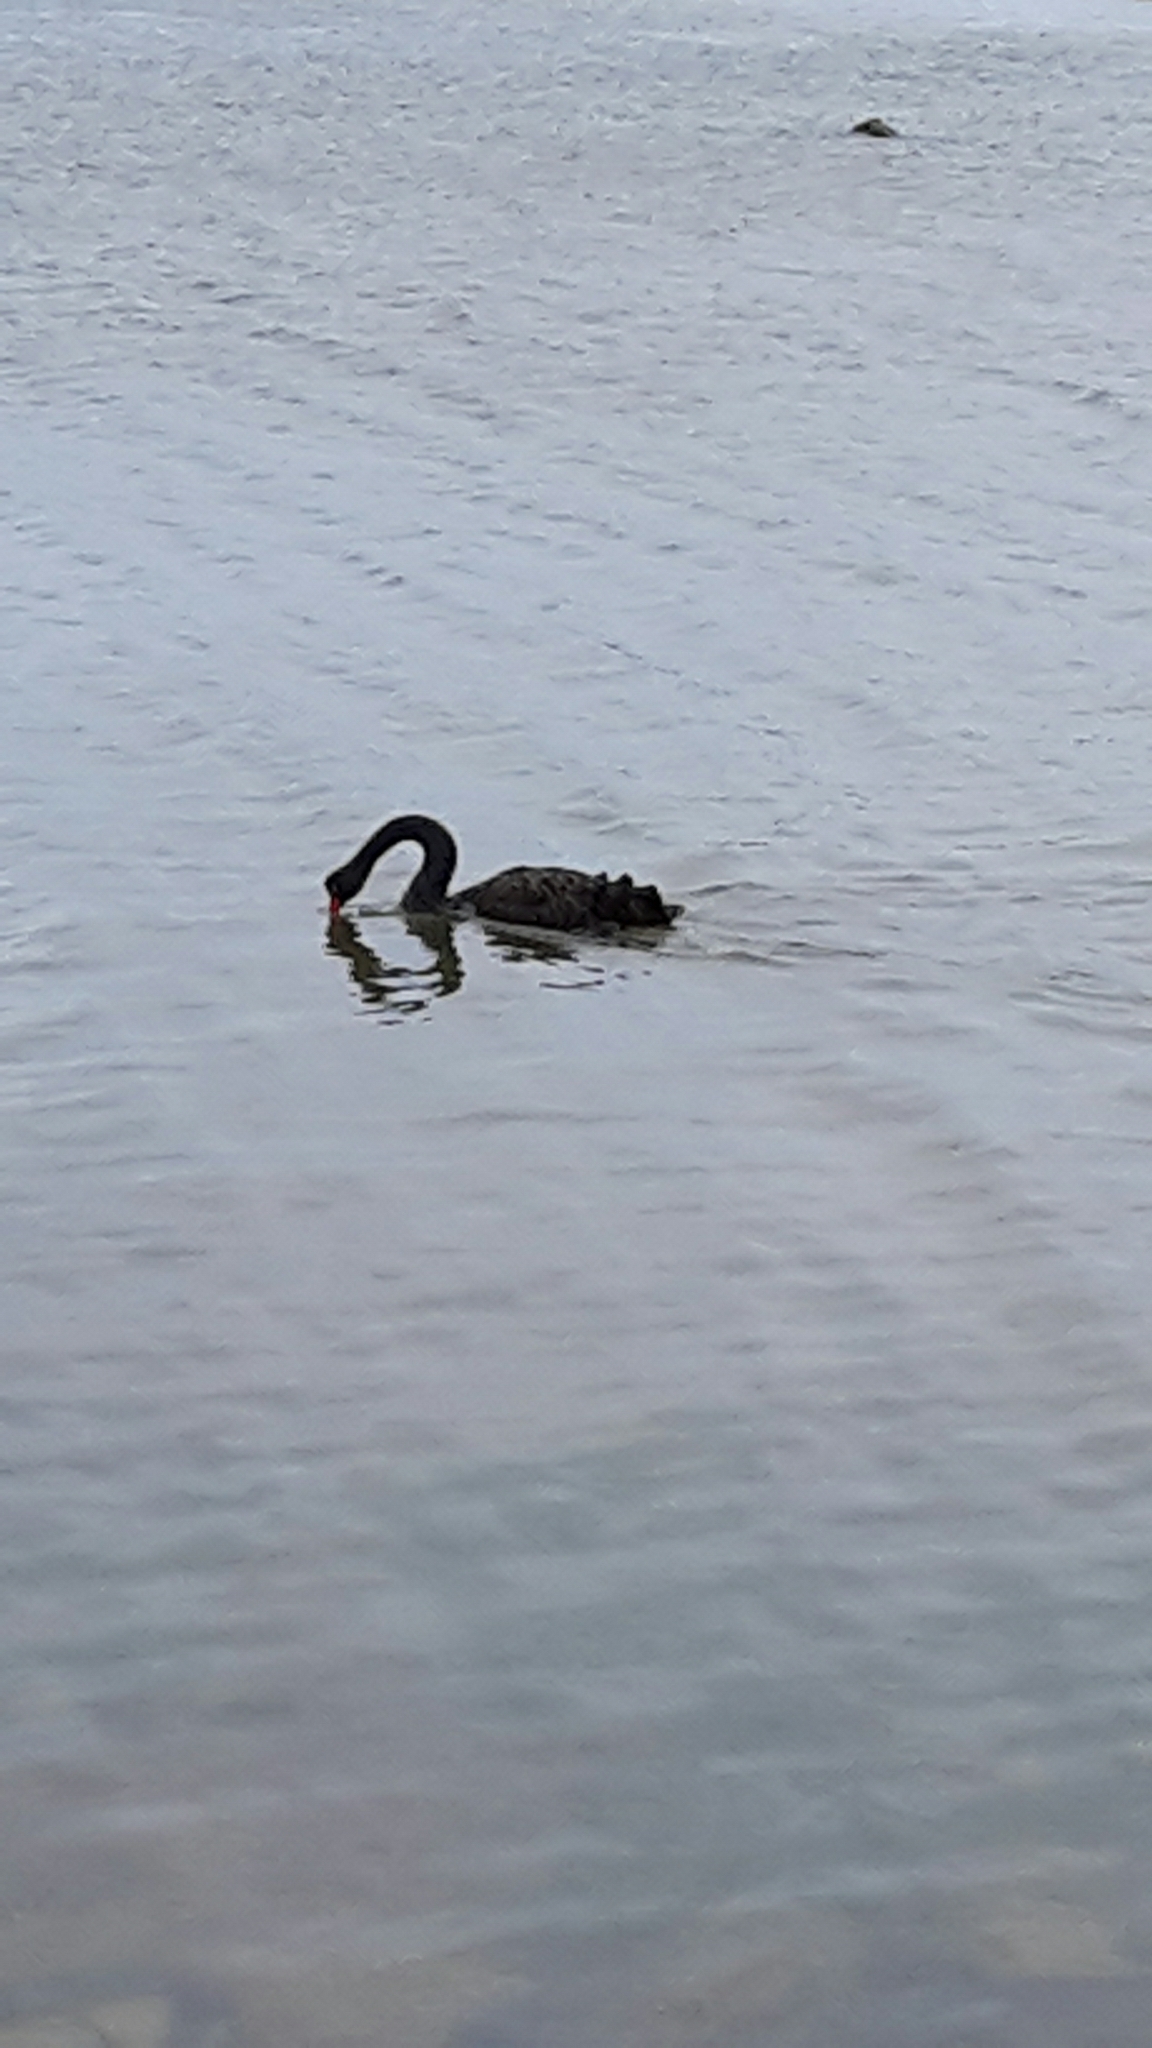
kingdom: Animalia
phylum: Chordata
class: Aves
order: Anseriformes
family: Anatidae
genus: Cygnus
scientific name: Cygnus atratus
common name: Black swan
